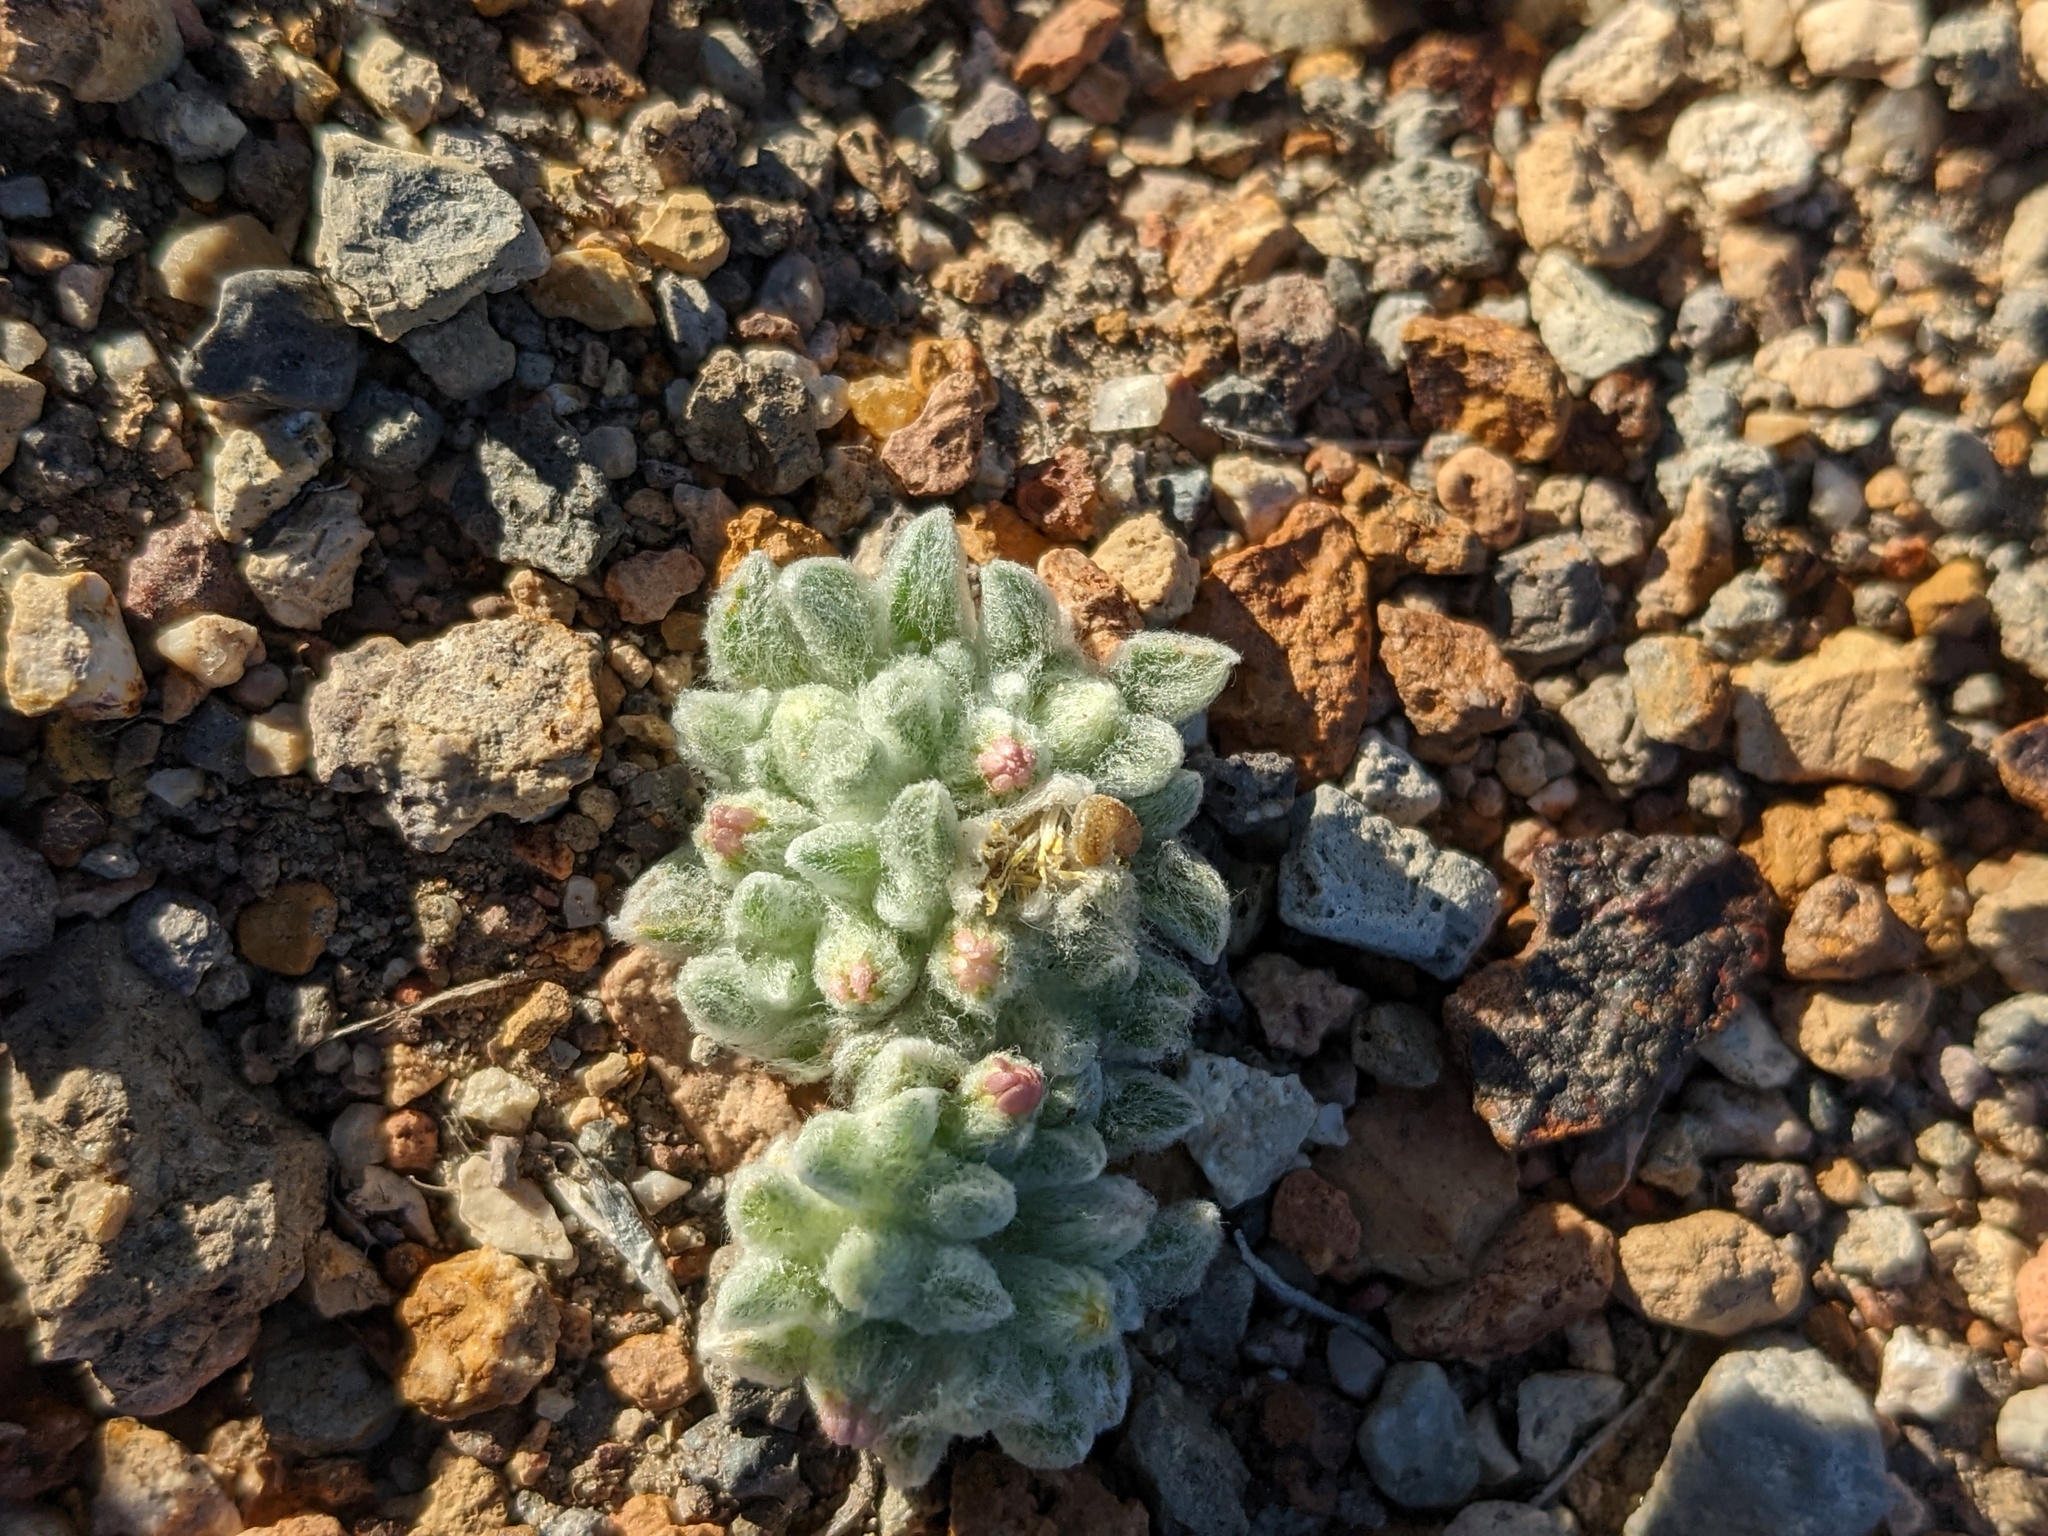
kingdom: Plantae
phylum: Tracheophyta
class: Magnoliopsida
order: Asterales
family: Asteraceae
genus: Eatonella
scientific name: Eatonella nivea
